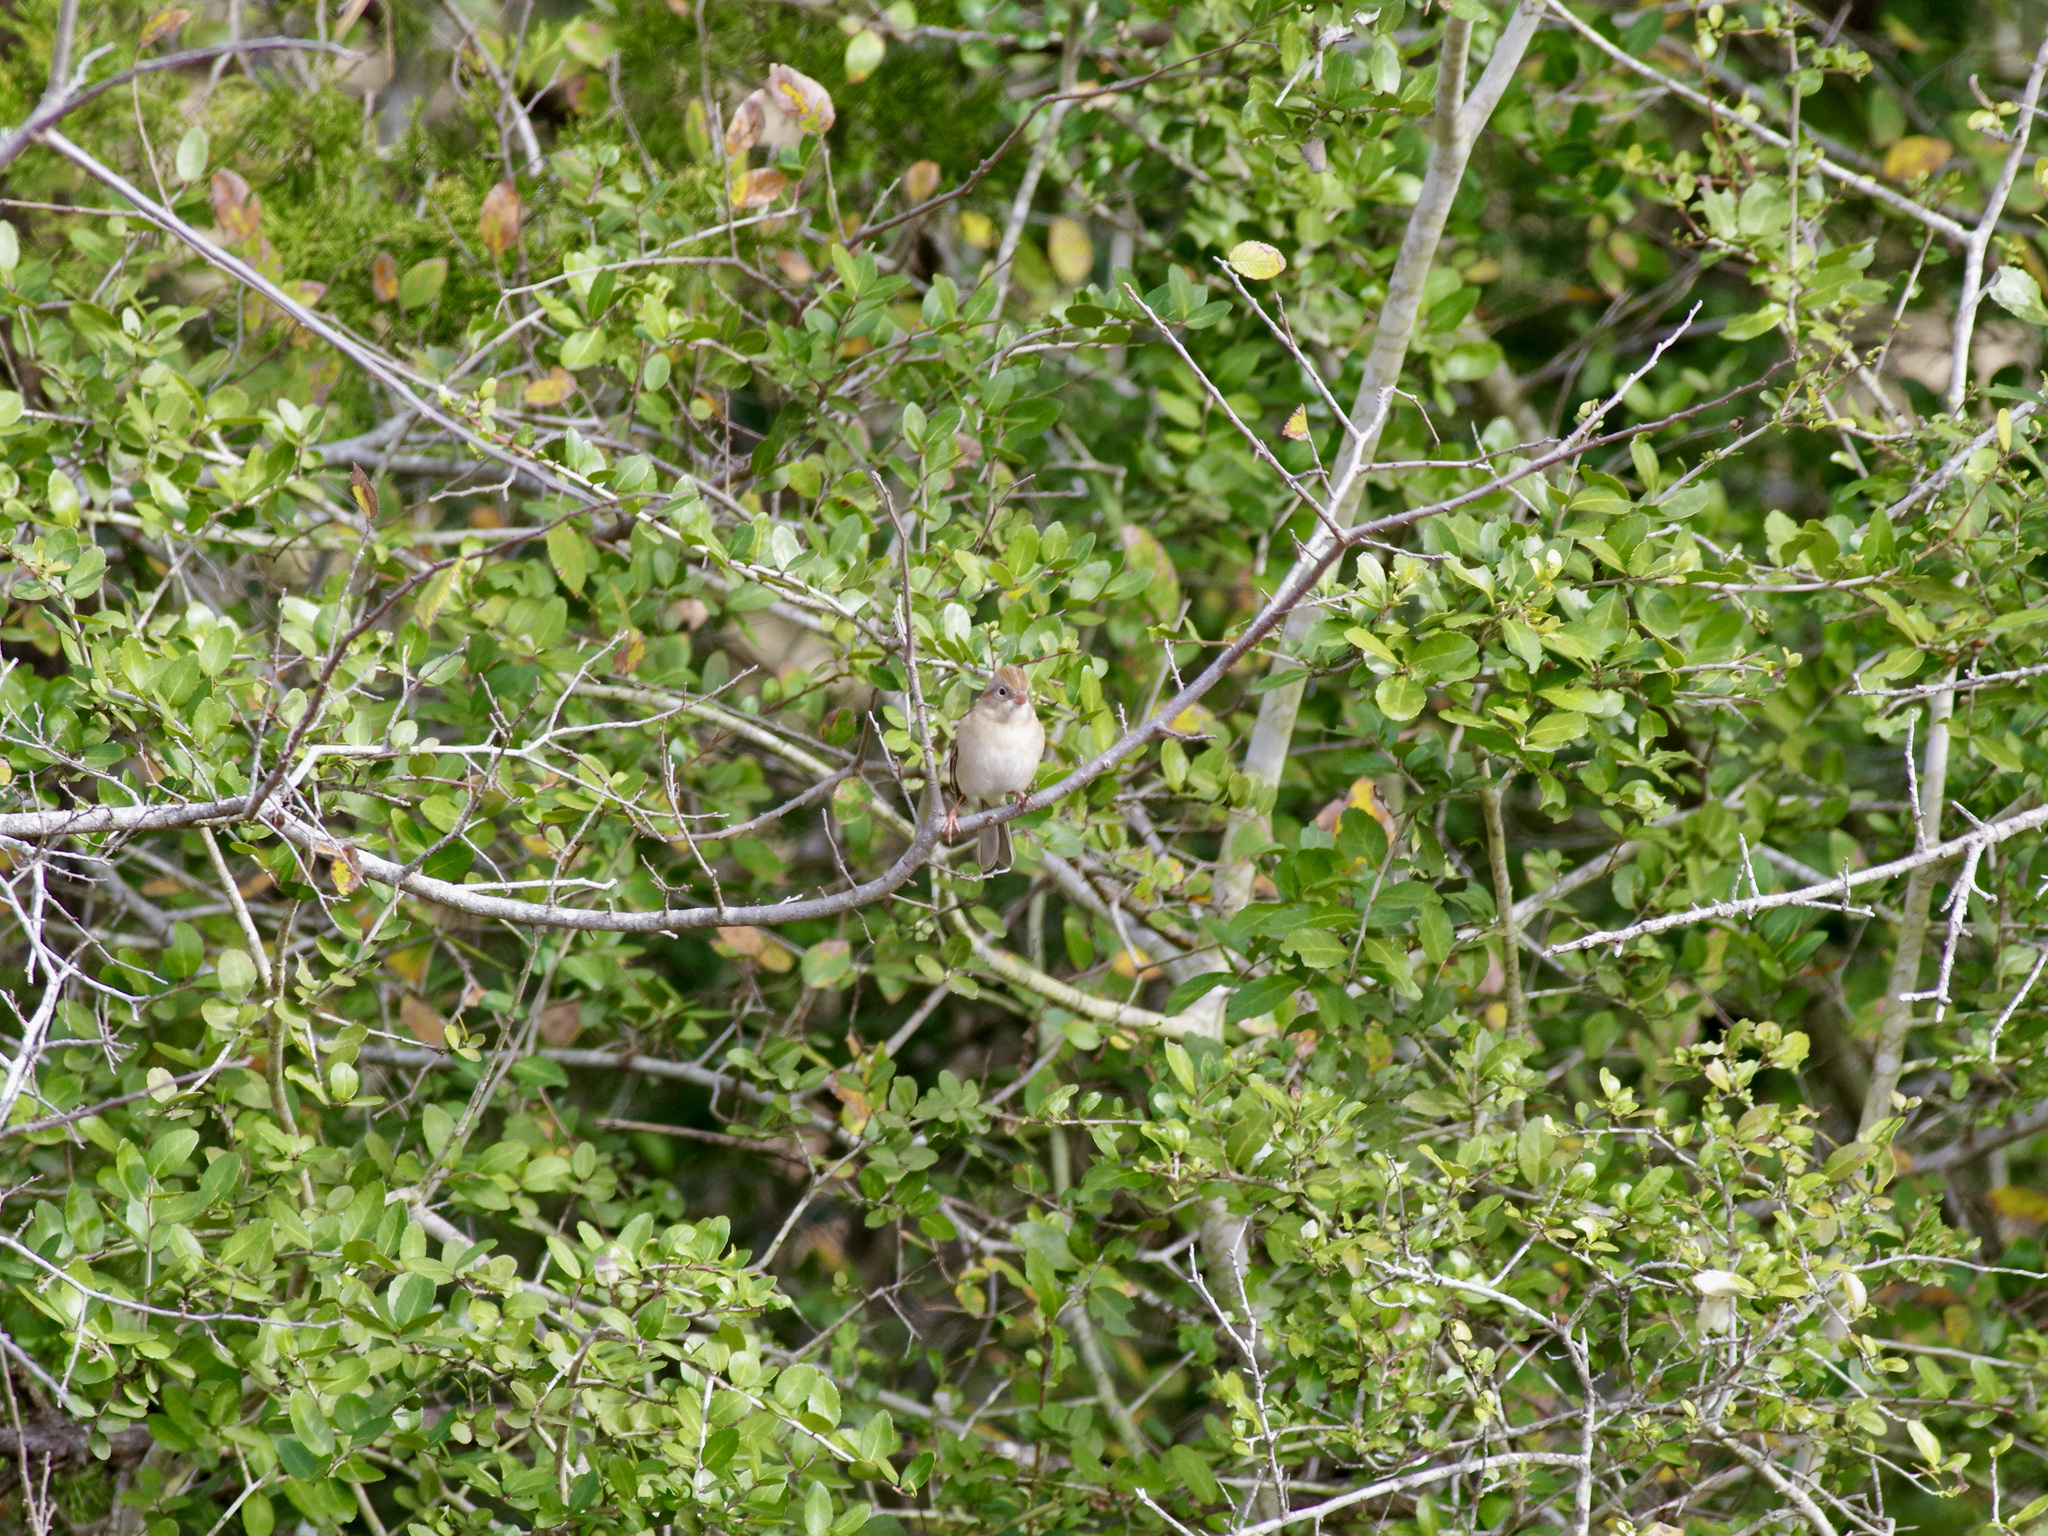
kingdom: Animalia
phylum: Chordata
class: Aves
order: Passeriformes
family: Passerellidae
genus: Spizella
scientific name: Spizella pusilla
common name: Field sparrow
